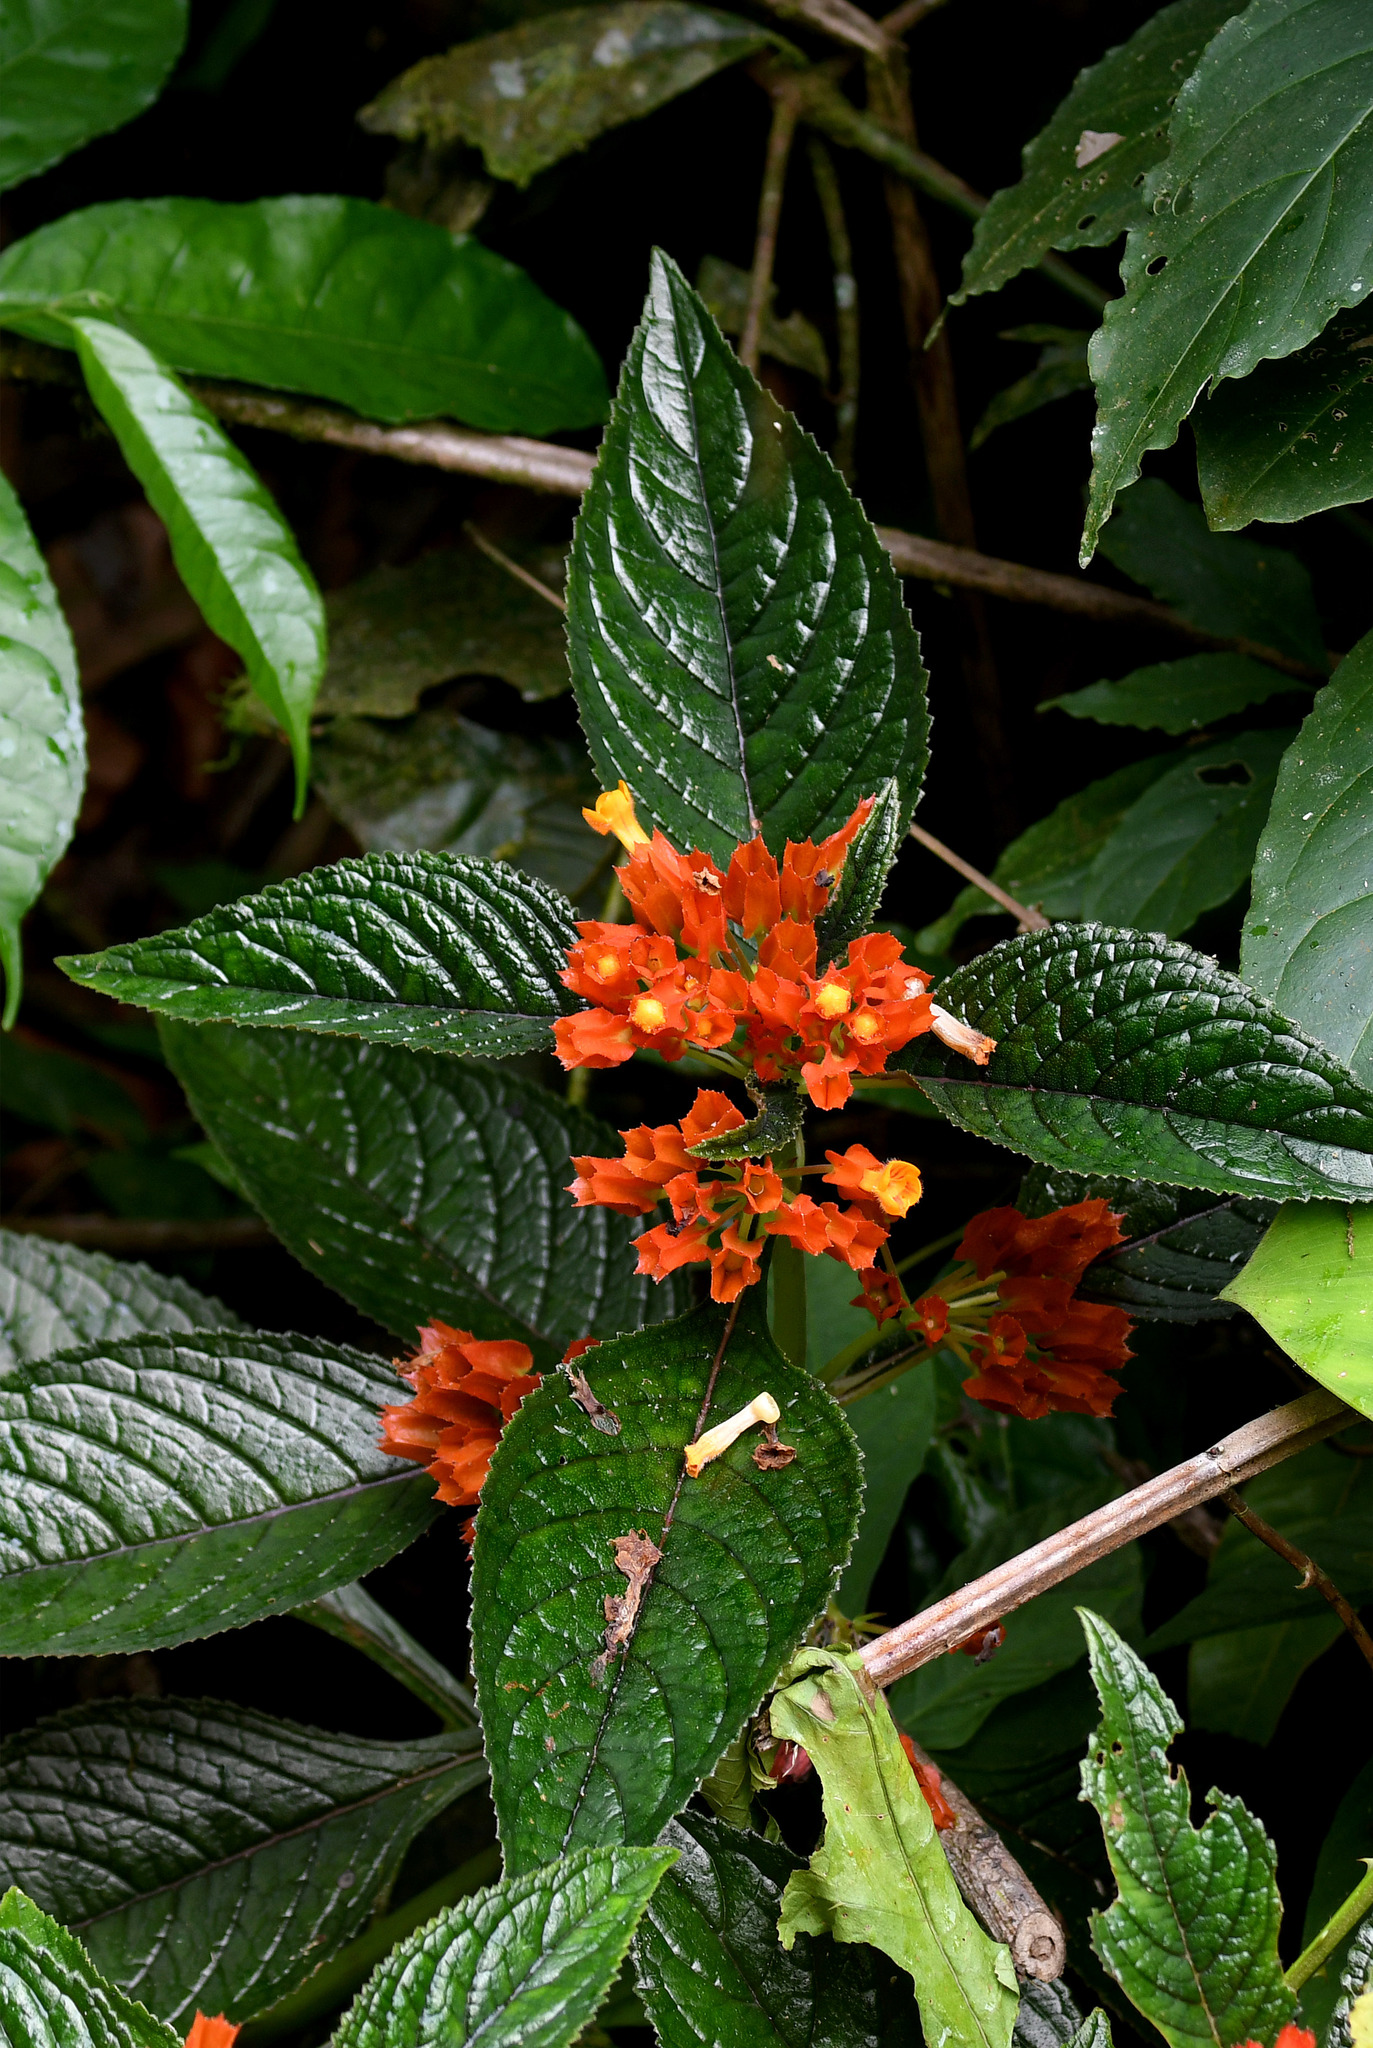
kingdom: Plantae
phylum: Tracheophyta
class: Magnoliopsida
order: Lamiales
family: Gesneriaceae
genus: Chrysothemis
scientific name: Chrysothemis pulchella
